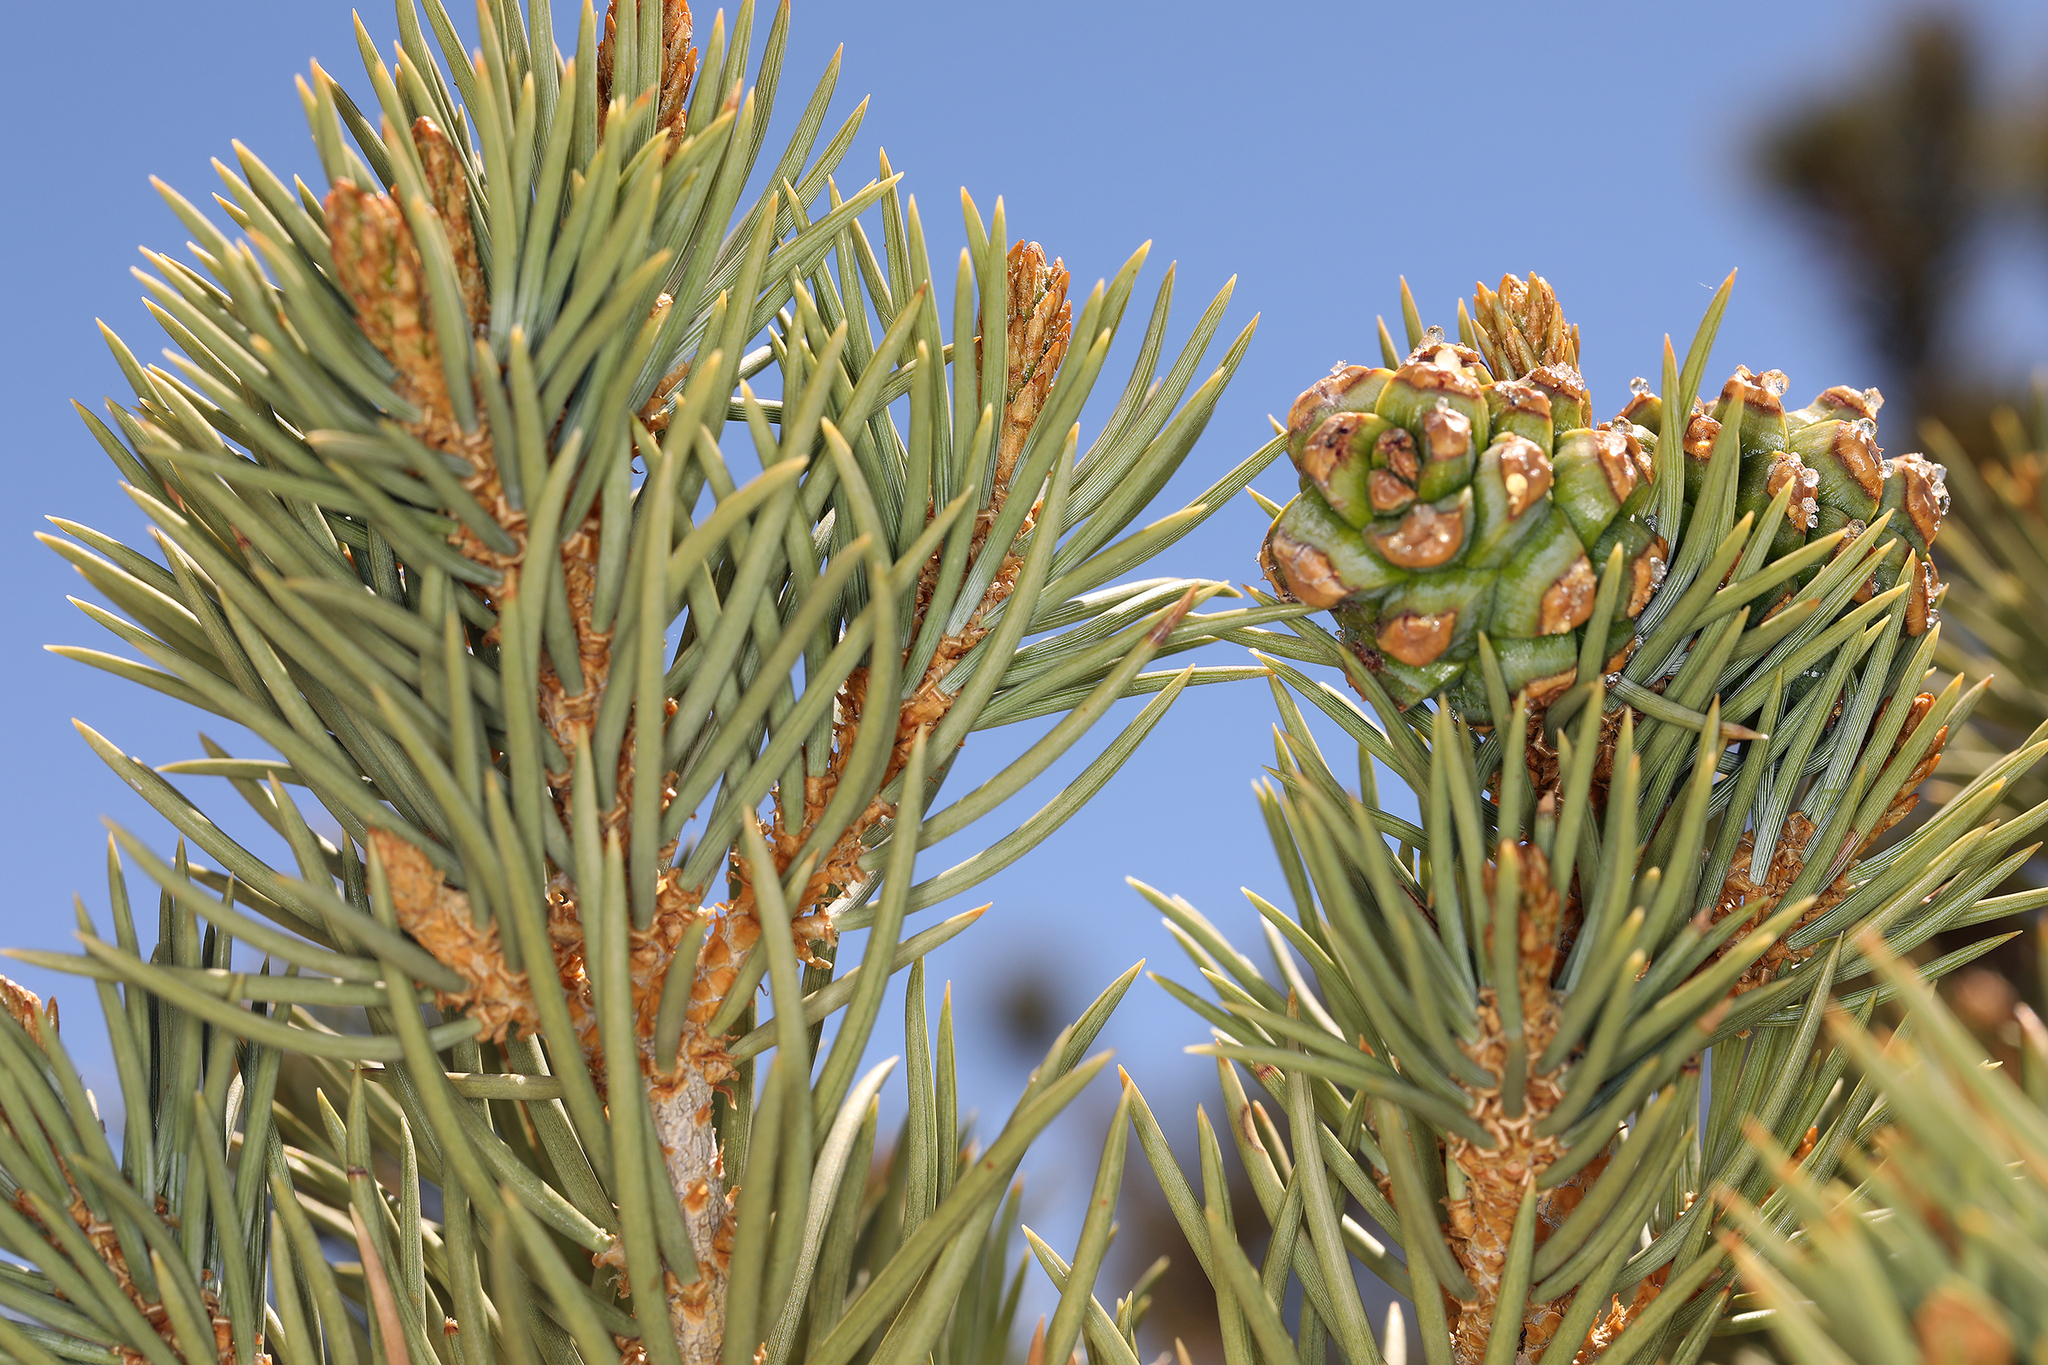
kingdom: Plantae
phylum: Tracheophyta
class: Pinopsida
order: Pinales
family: Pinaceae
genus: Pinus
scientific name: Pinus monophylla
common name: One-leaved nut pine
